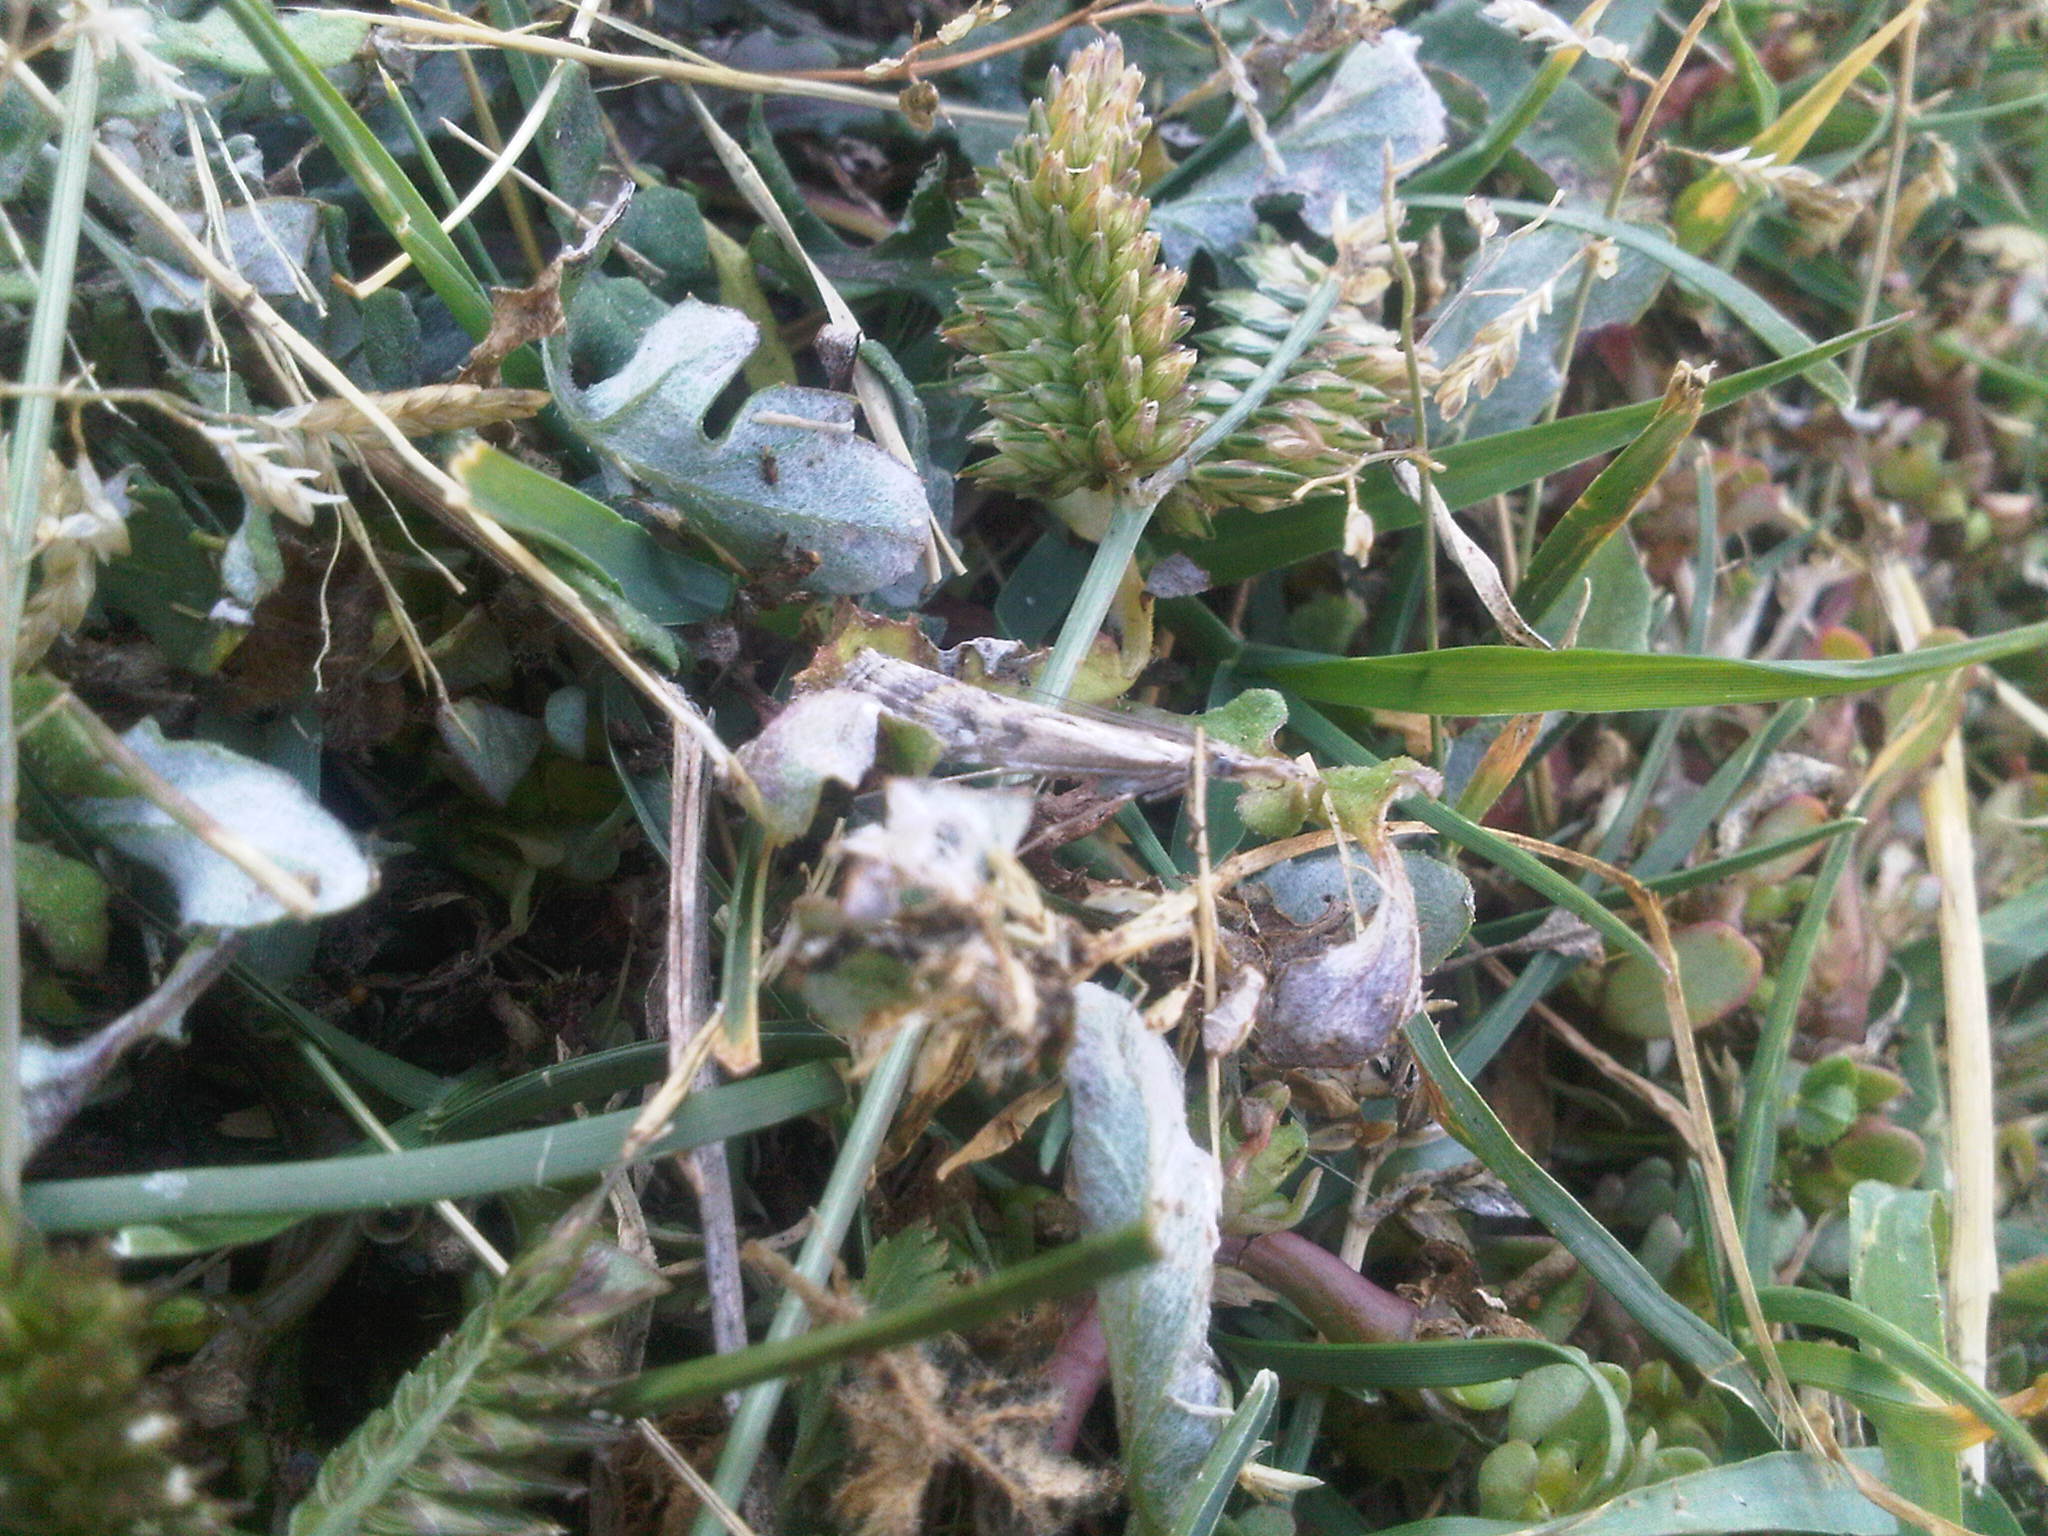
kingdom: Animalia
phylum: Arthropoda
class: Insecta
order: Lepidoptera
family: Crambidae
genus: Hednota
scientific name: Hednota pedionoma
